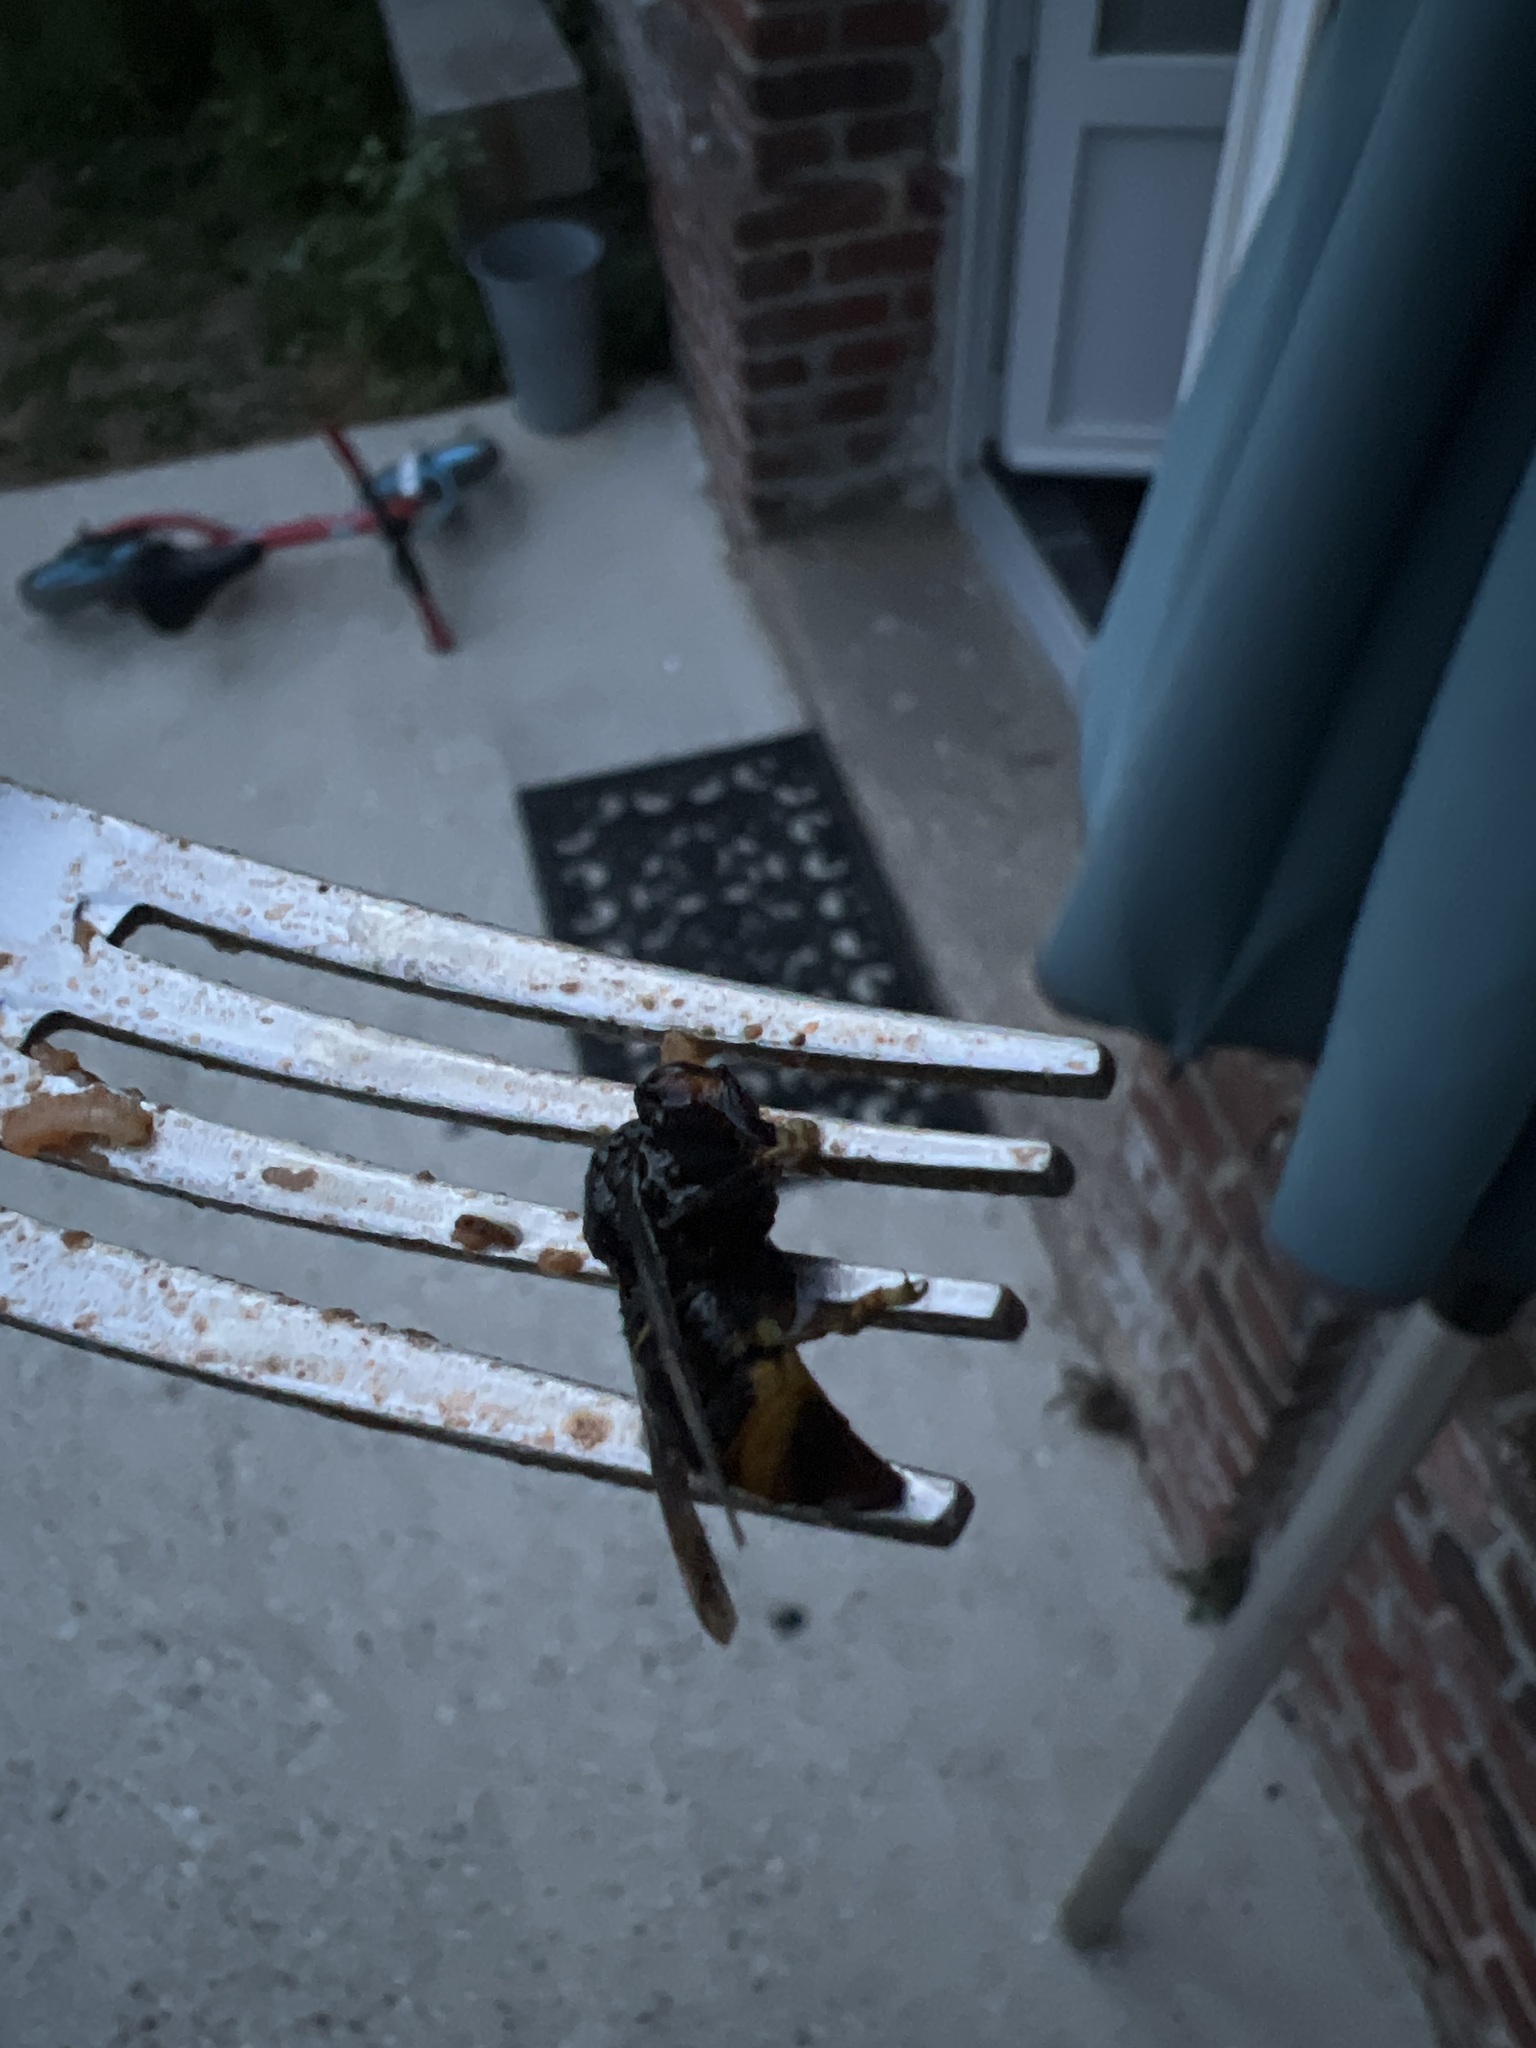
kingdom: Animalia
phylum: Arthropoda
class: Insecta
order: Hymenoptera
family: Vespidae
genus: Vespa
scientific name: Vespa velutina
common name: Asian hornet
